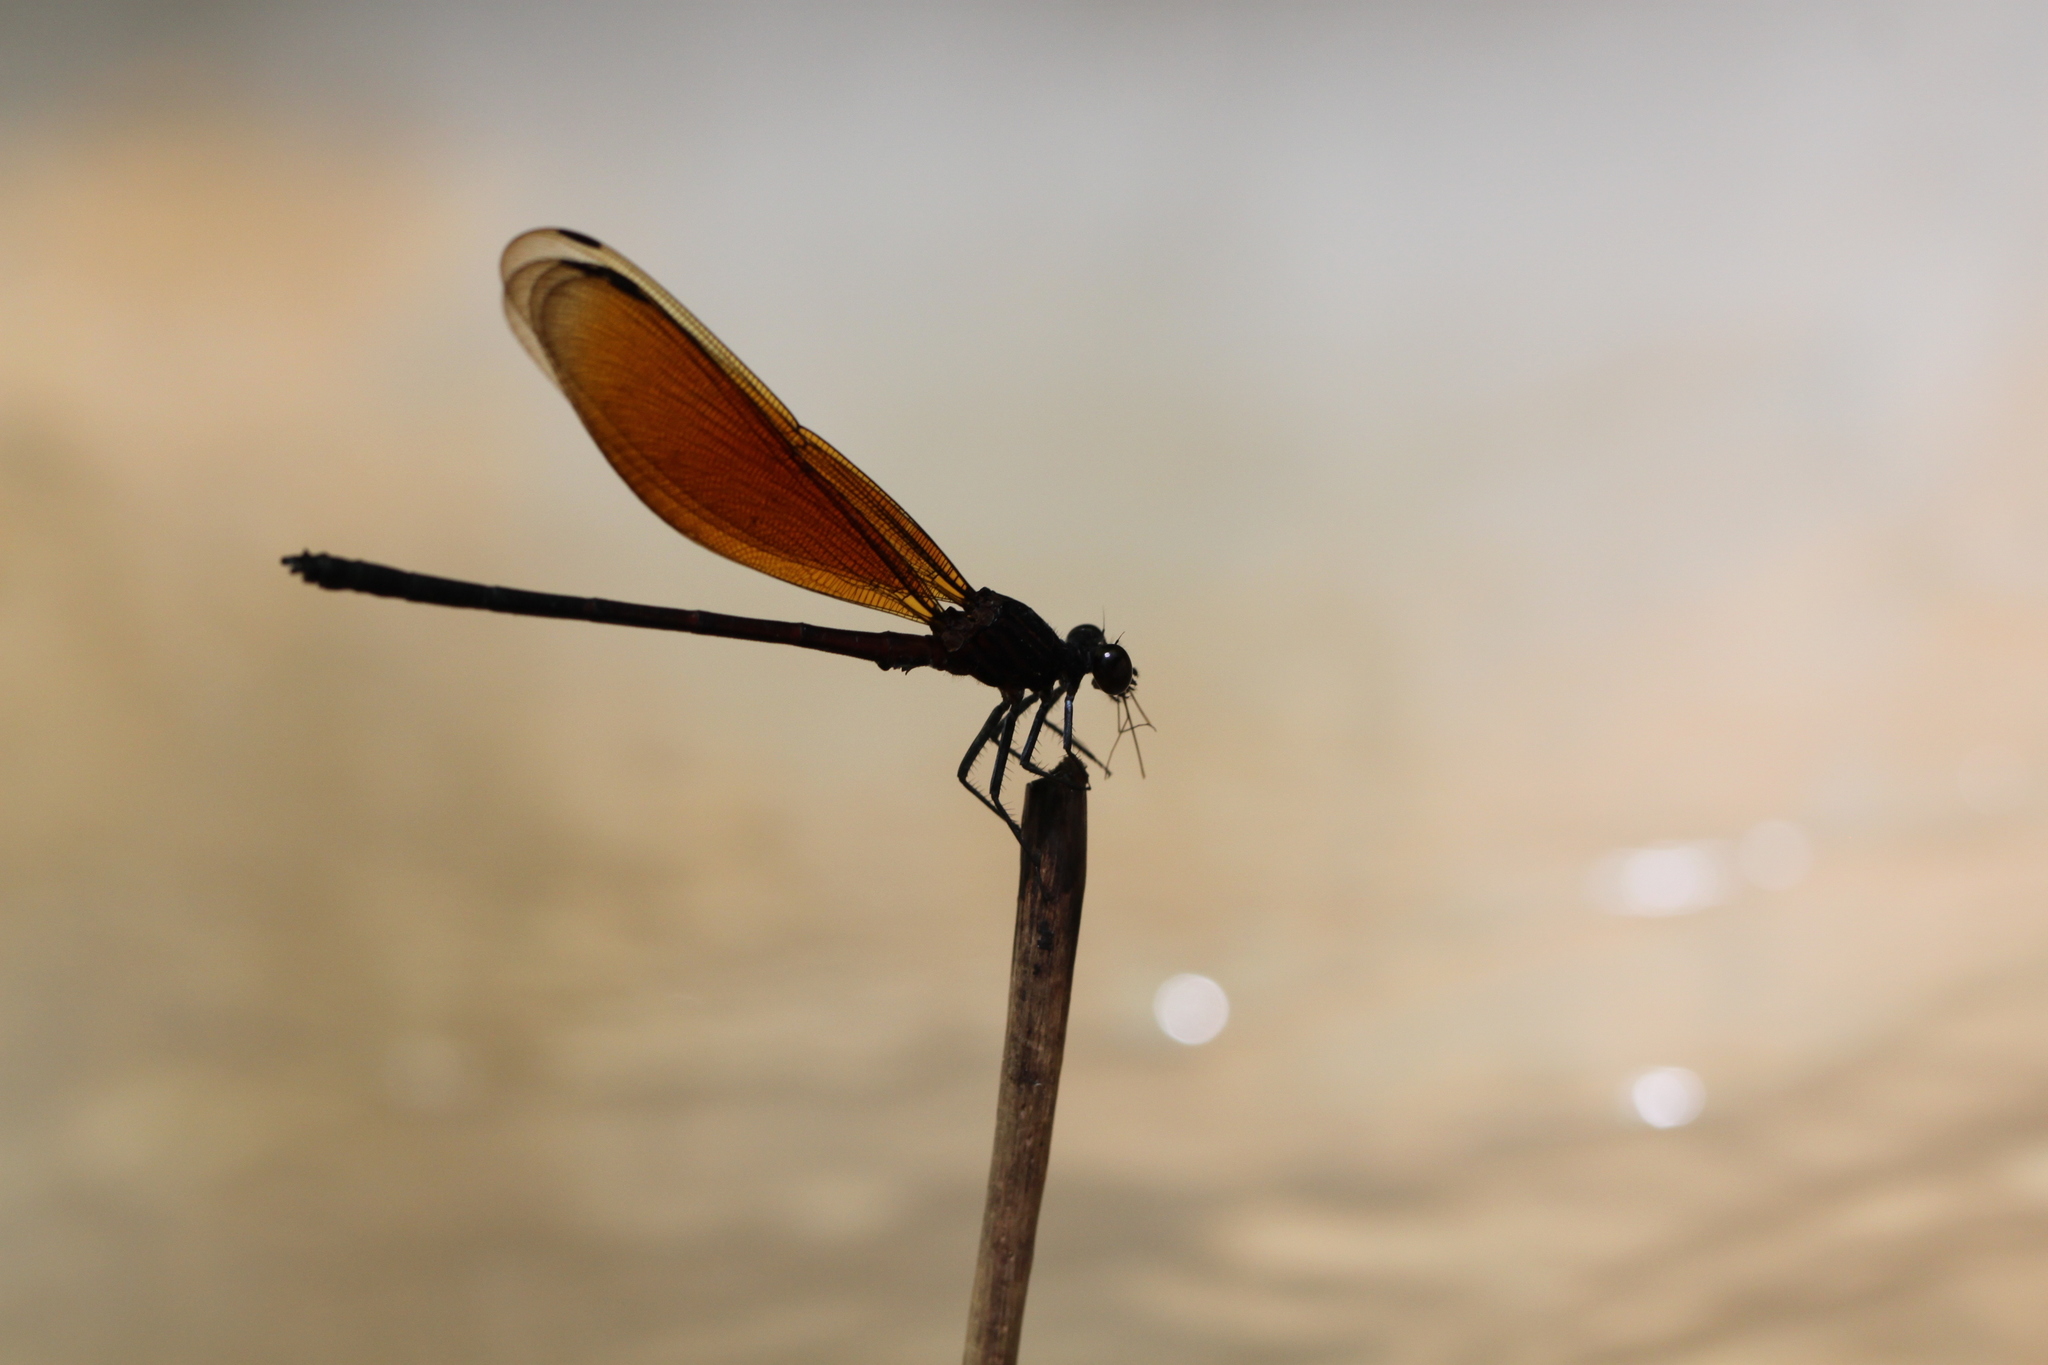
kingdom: Animalia
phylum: Arthropoda
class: Insecta
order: Odonata
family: Euphaeidae
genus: Euphaea
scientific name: Euphaea ochracea
